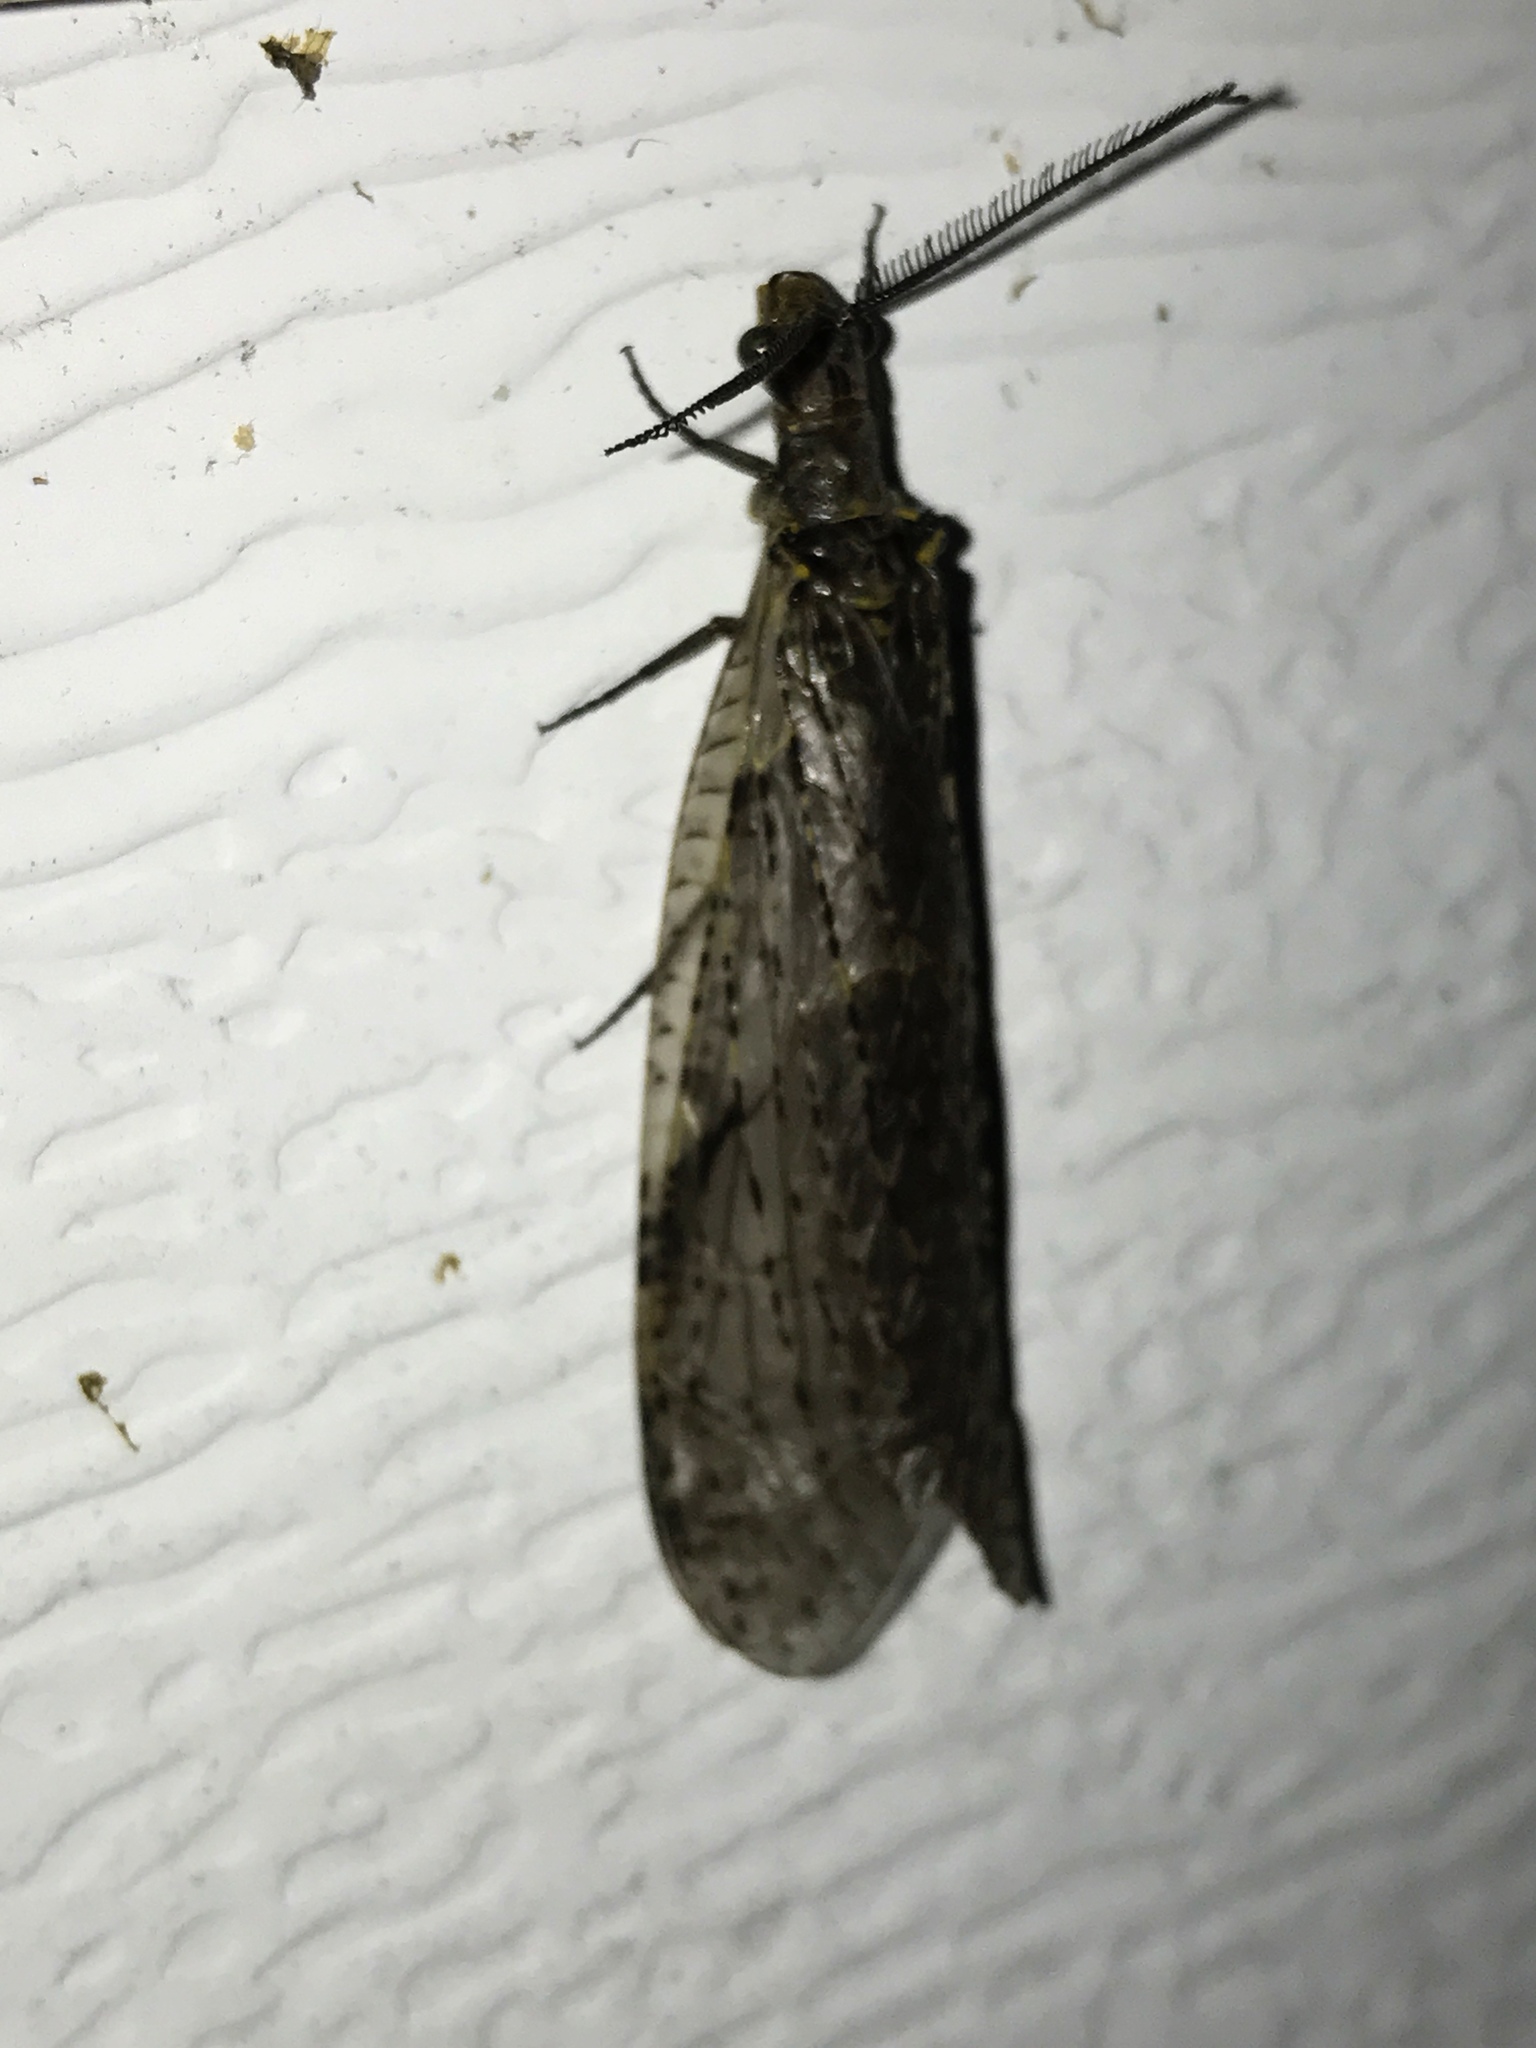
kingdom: Animalia
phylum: Arthropoda
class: Insecta
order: Megaloptera
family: Corydalidae
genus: Chauliodes
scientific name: Chauliodes rastricornis
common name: Spring fishfly
